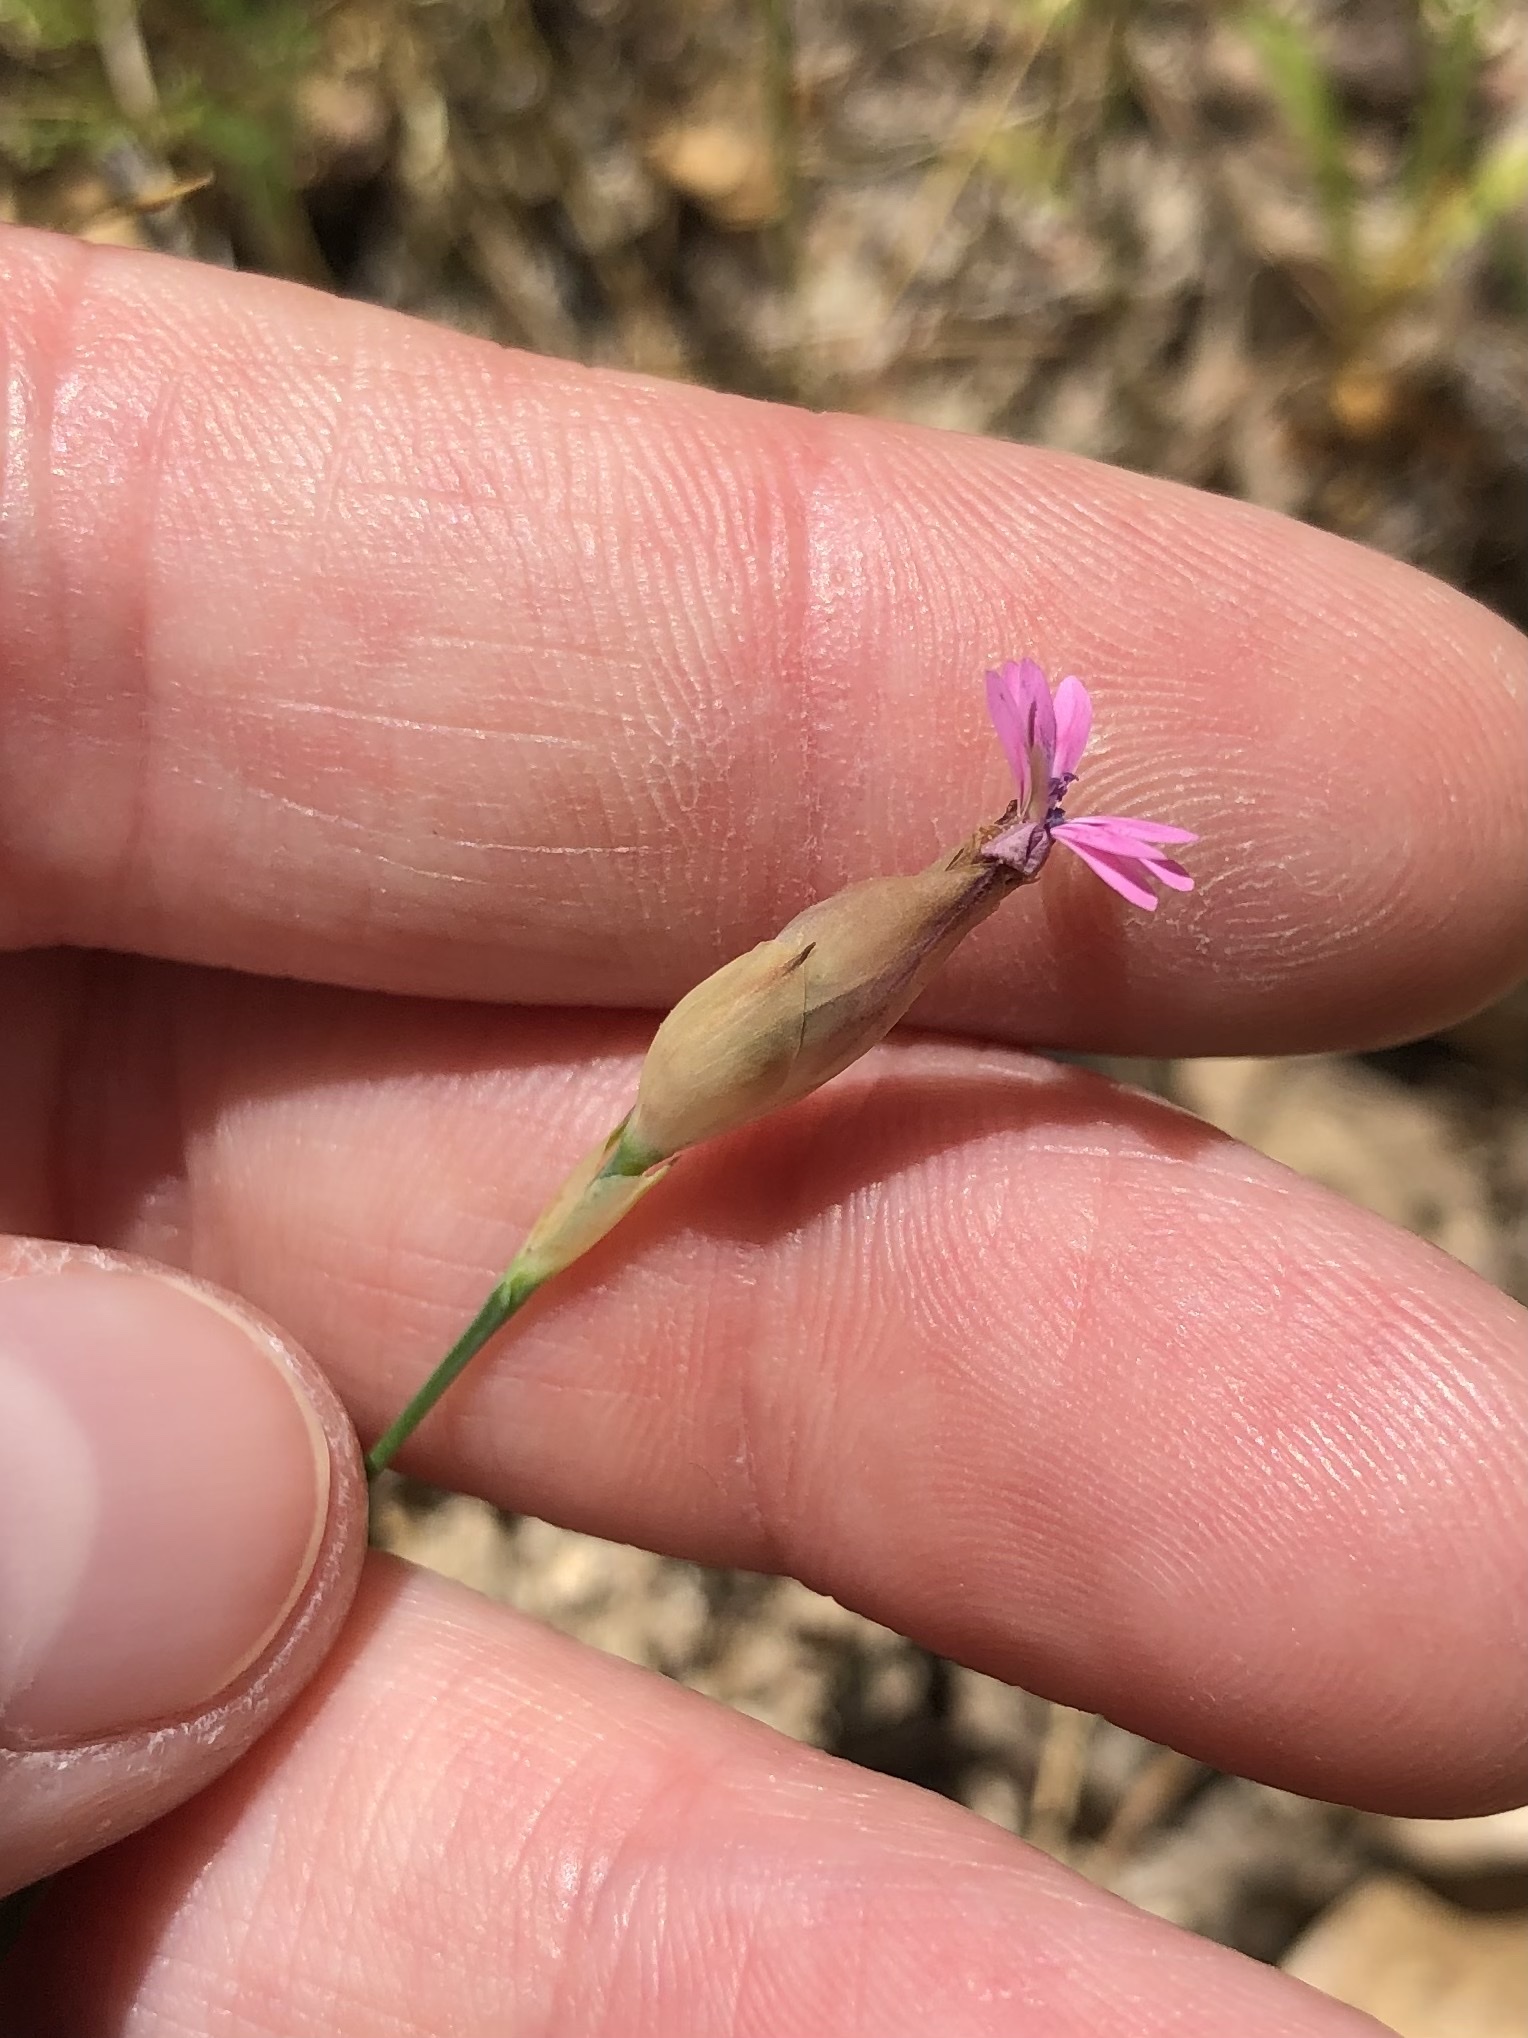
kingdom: Plantae
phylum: Tracheophyta
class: Magnoliopsida
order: Caryophyllales
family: Caryophyllaceae
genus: Petrorhagia
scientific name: Petrorhagia dubia
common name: Hairypink
